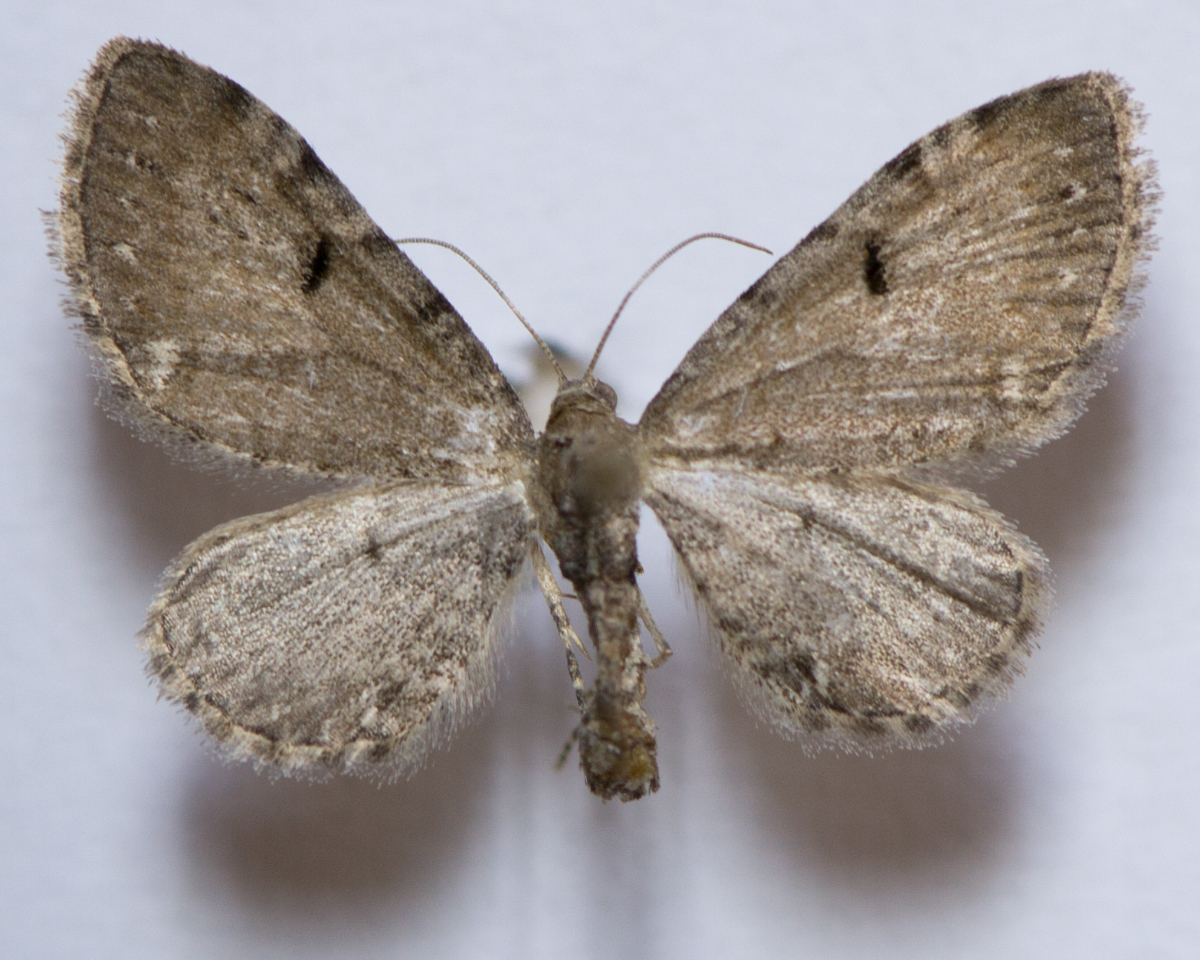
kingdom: Animalia
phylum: Arthropoda
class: Insecta
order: Lepidoptera
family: Geometridae
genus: Eupithecia
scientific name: Eupithecia assimilata
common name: Currant pug
